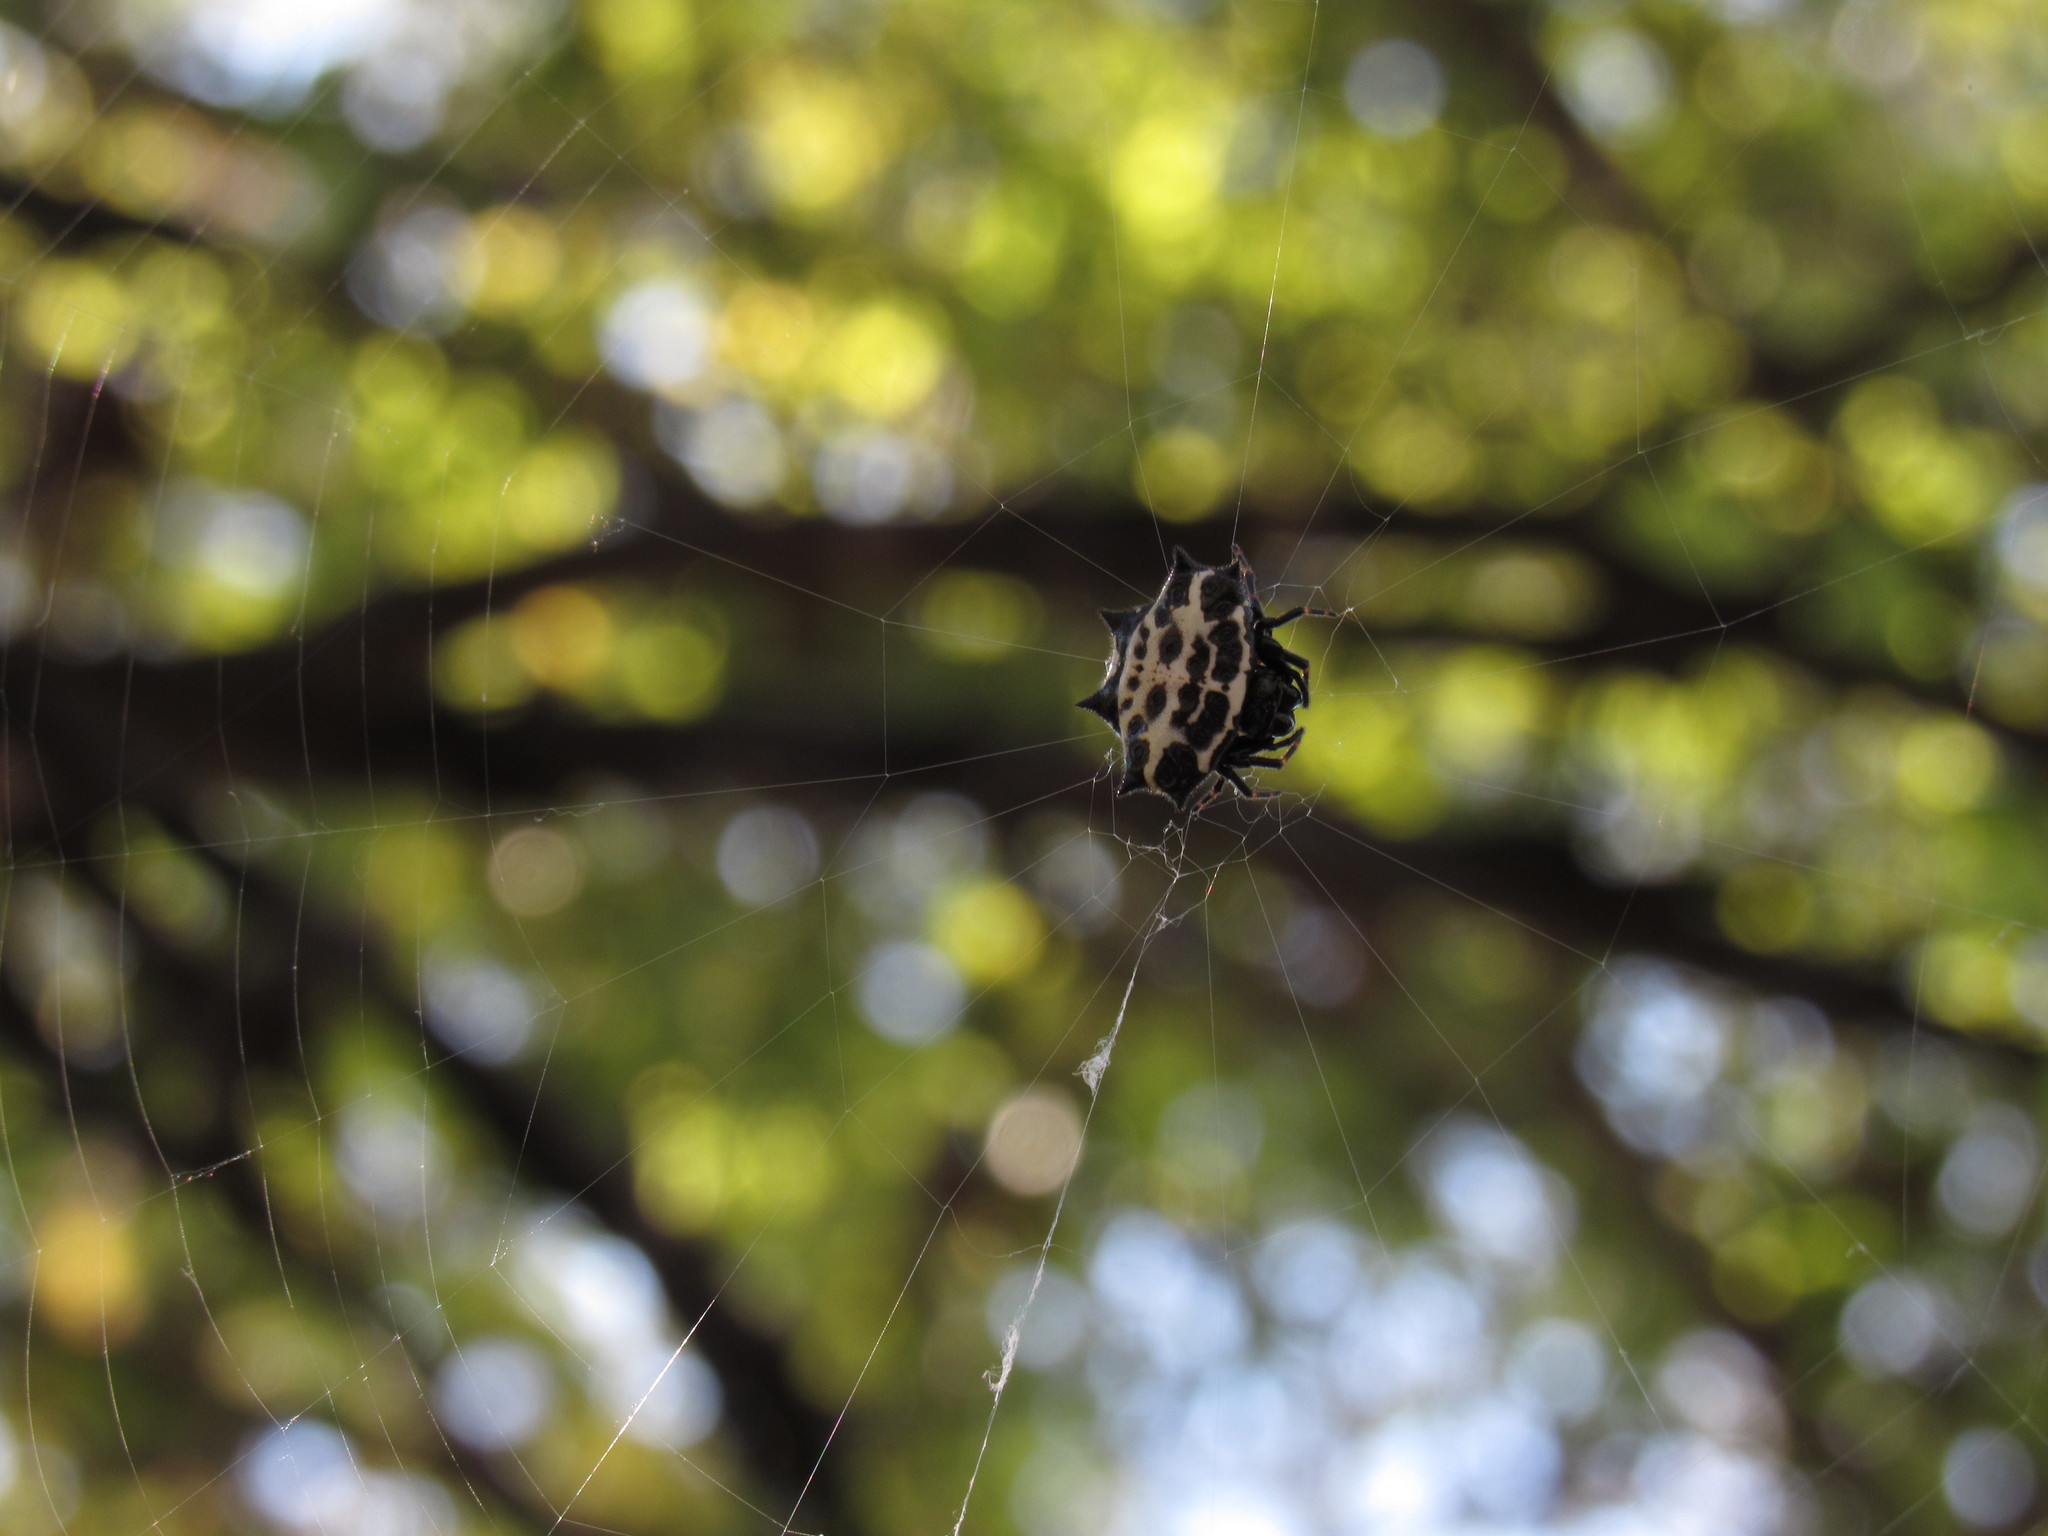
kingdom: Animalia
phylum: Arthropoda
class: Arachnida
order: Araneae
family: Araneidae
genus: Gasteracantha
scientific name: Gasteracantha cancriformis
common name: Orb weavers
